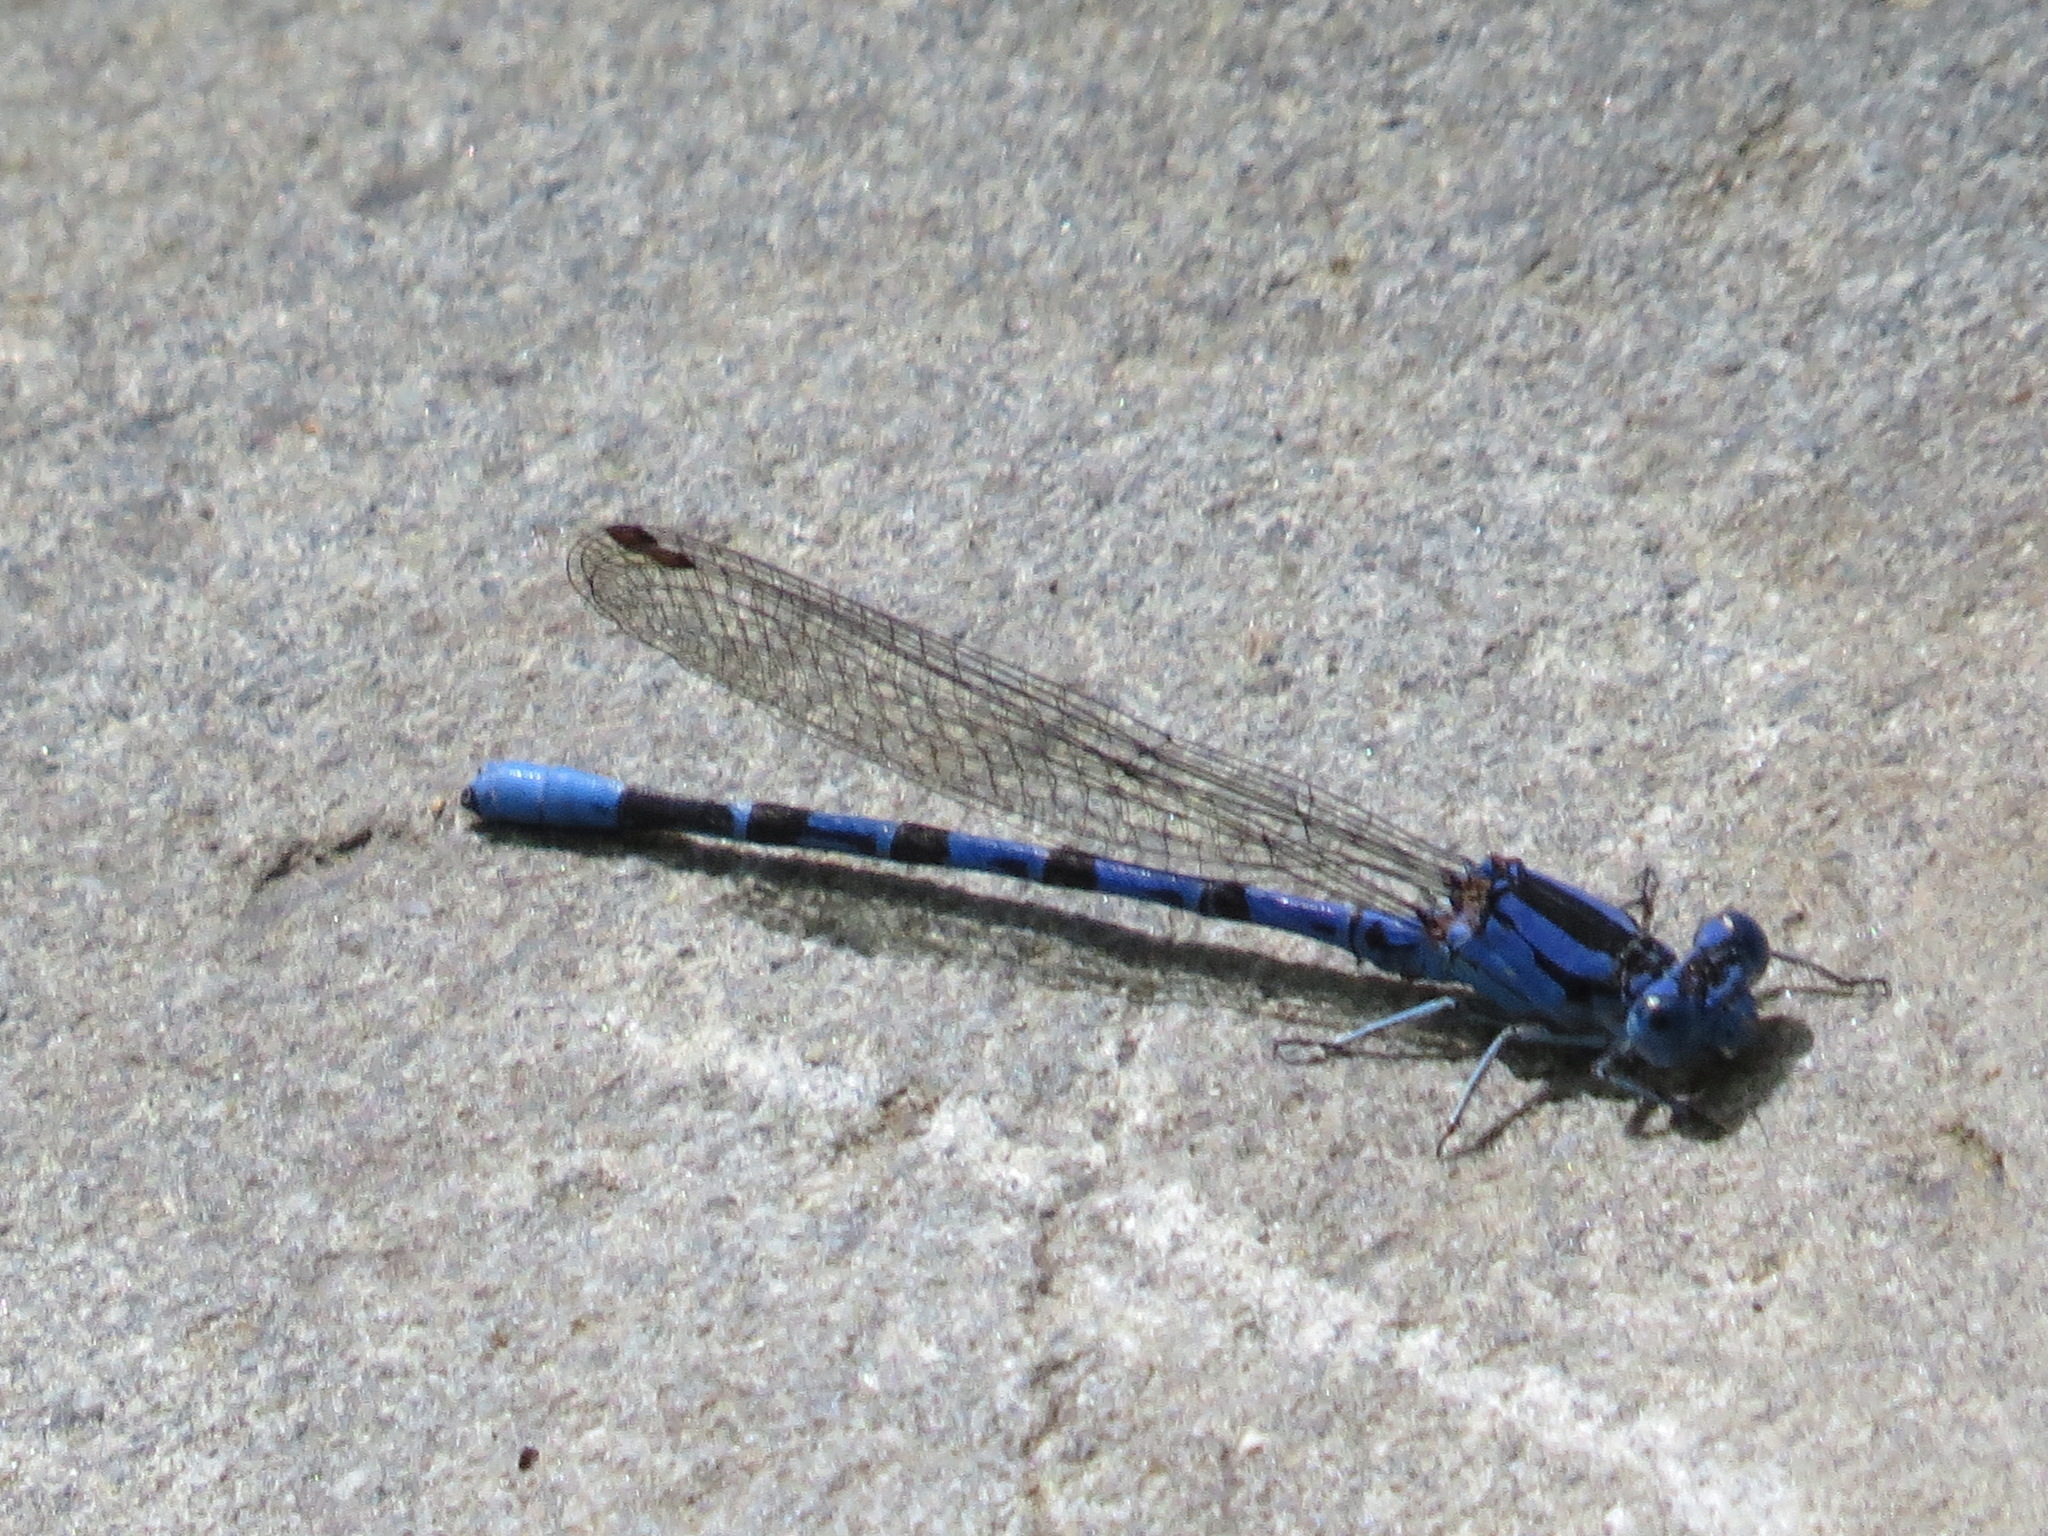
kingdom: Animalia
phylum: Arthropoda
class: Insecta
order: Odonata
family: Coenagrionidae
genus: Argia
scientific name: Argia vivida
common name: Vivid dancer
